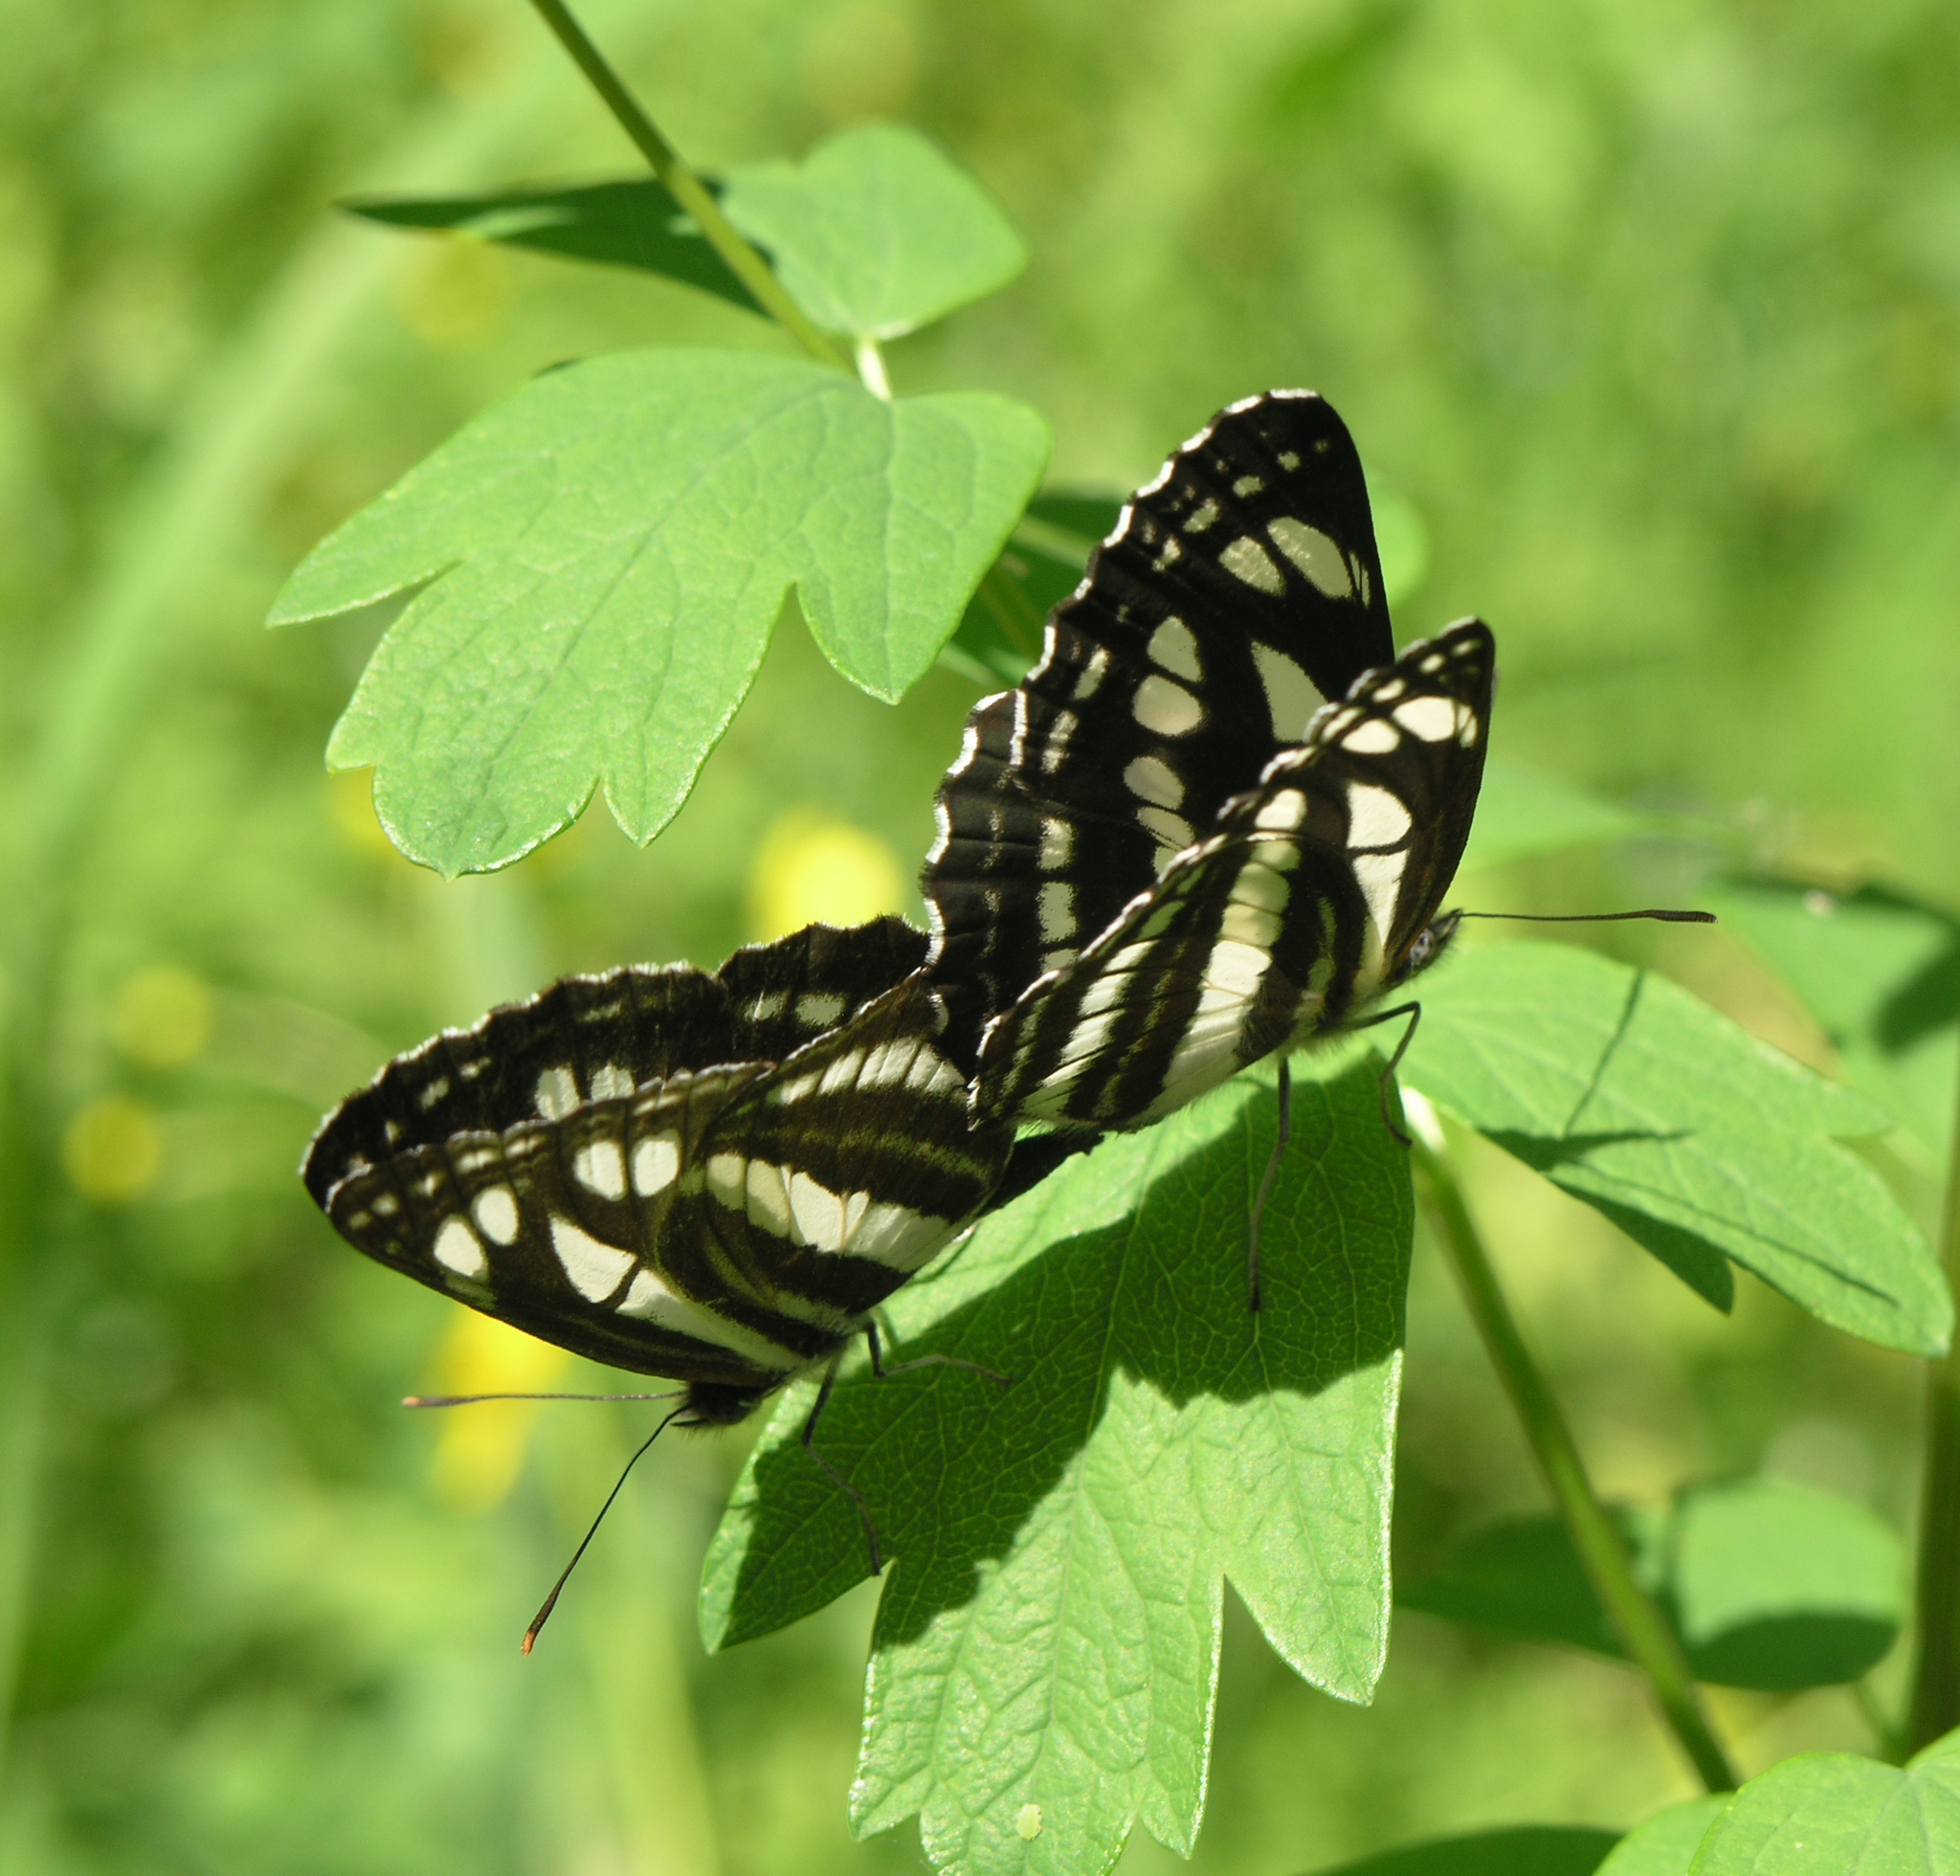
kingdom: Plantae
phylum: Tracheophyta
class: Magnoliopsida
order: Ranunculales
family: Ranunculaceae
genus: Thalictrum
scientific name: Thalictrum minus
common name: Lesser meadow-rue
